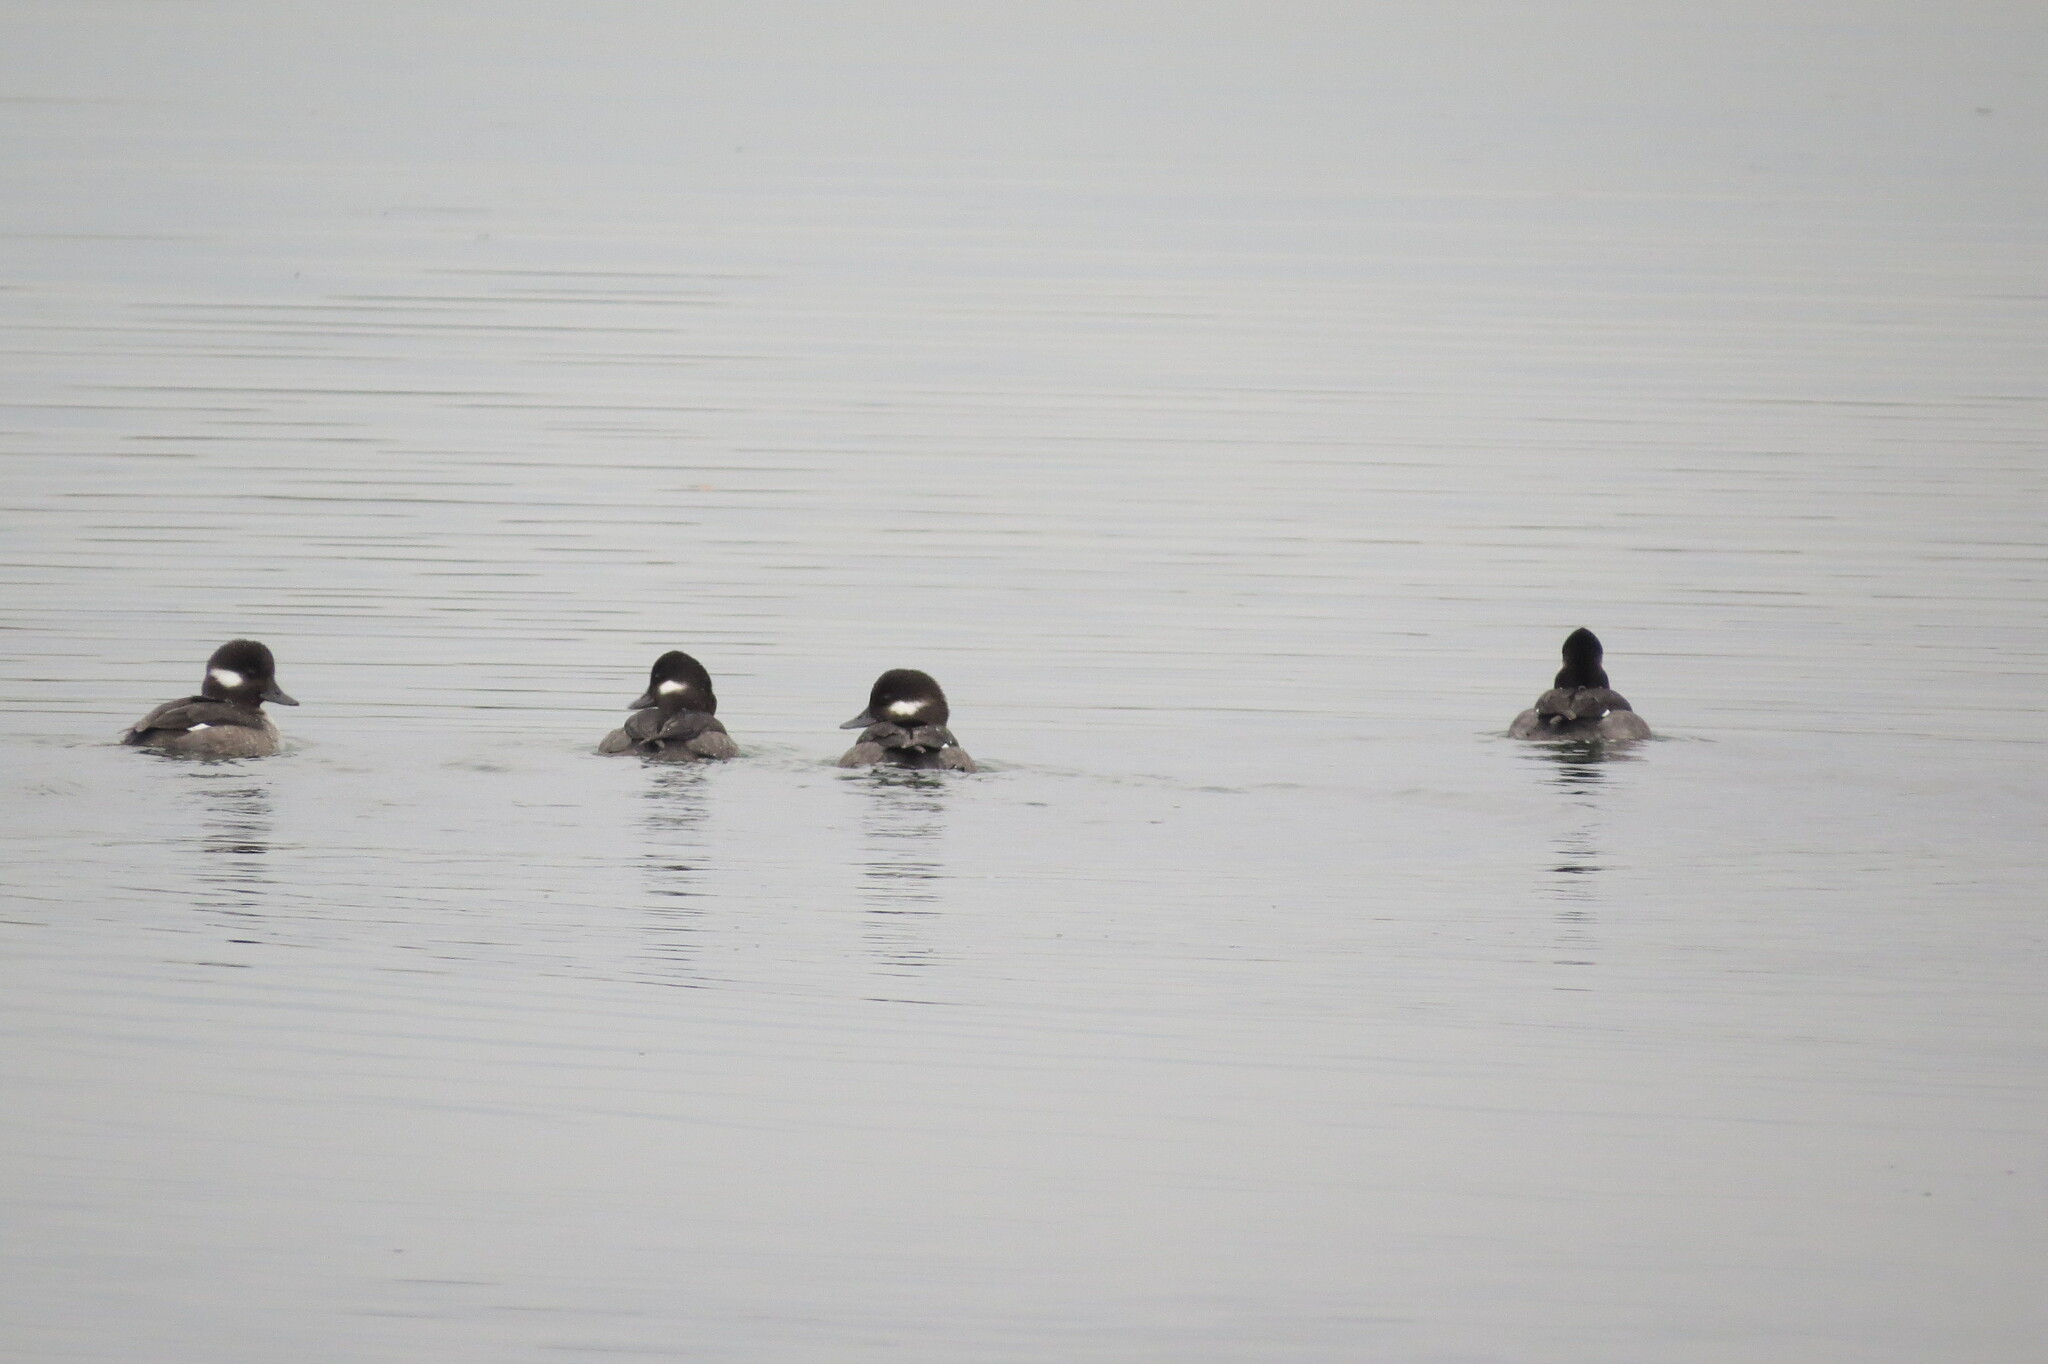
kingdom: Animalia
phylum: Chordata
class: Aves
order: Anseriformes
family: Anatidae
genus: Bucephala
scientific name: Bucephala albeola
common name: Bufflehead
